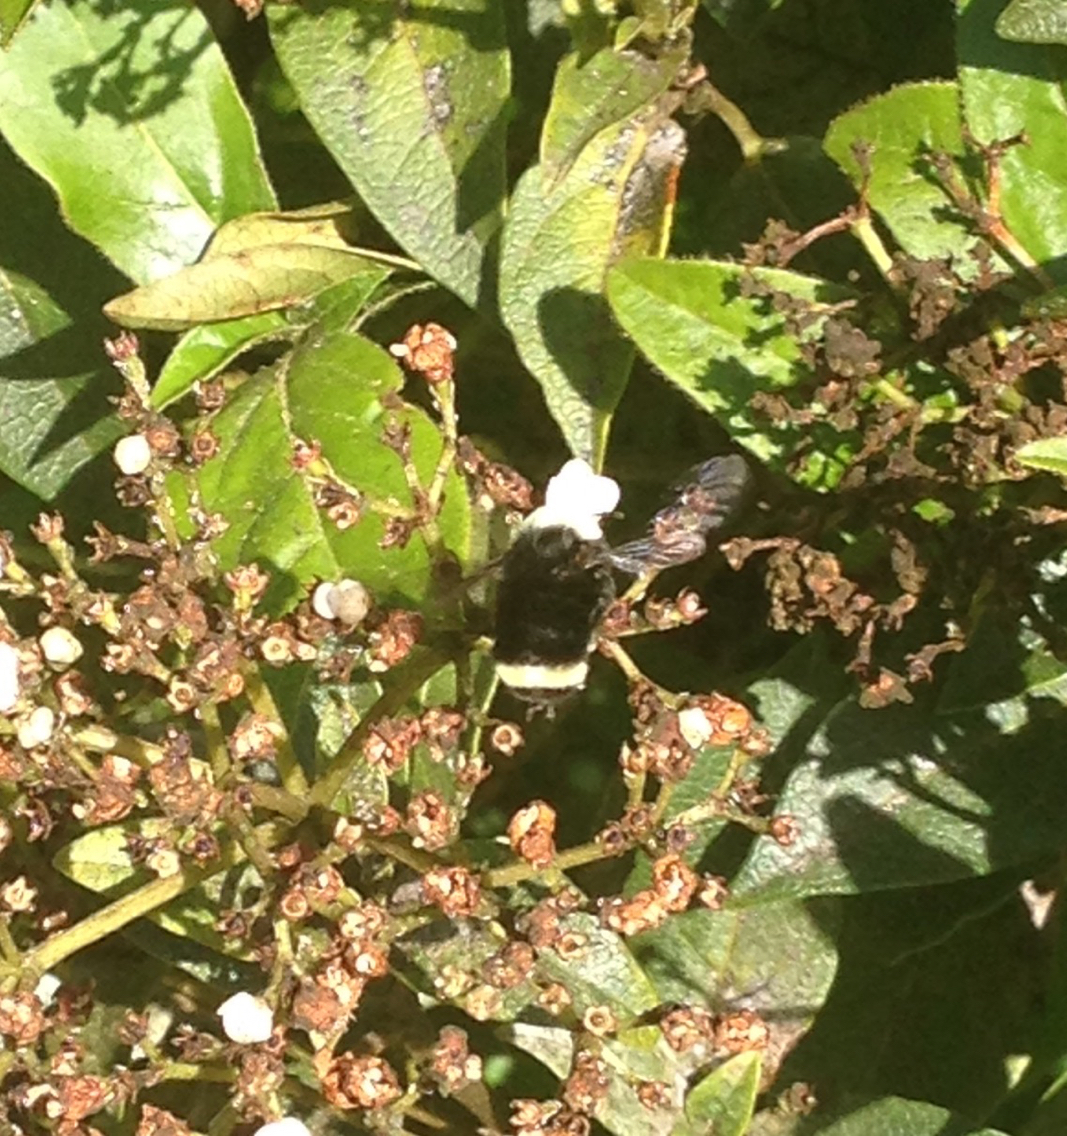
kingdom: Animalia
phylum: Arthropoda
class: Insecta
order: Hymenoptera
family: Apidae
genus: Pyrobombus
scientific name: Pyrobombus
